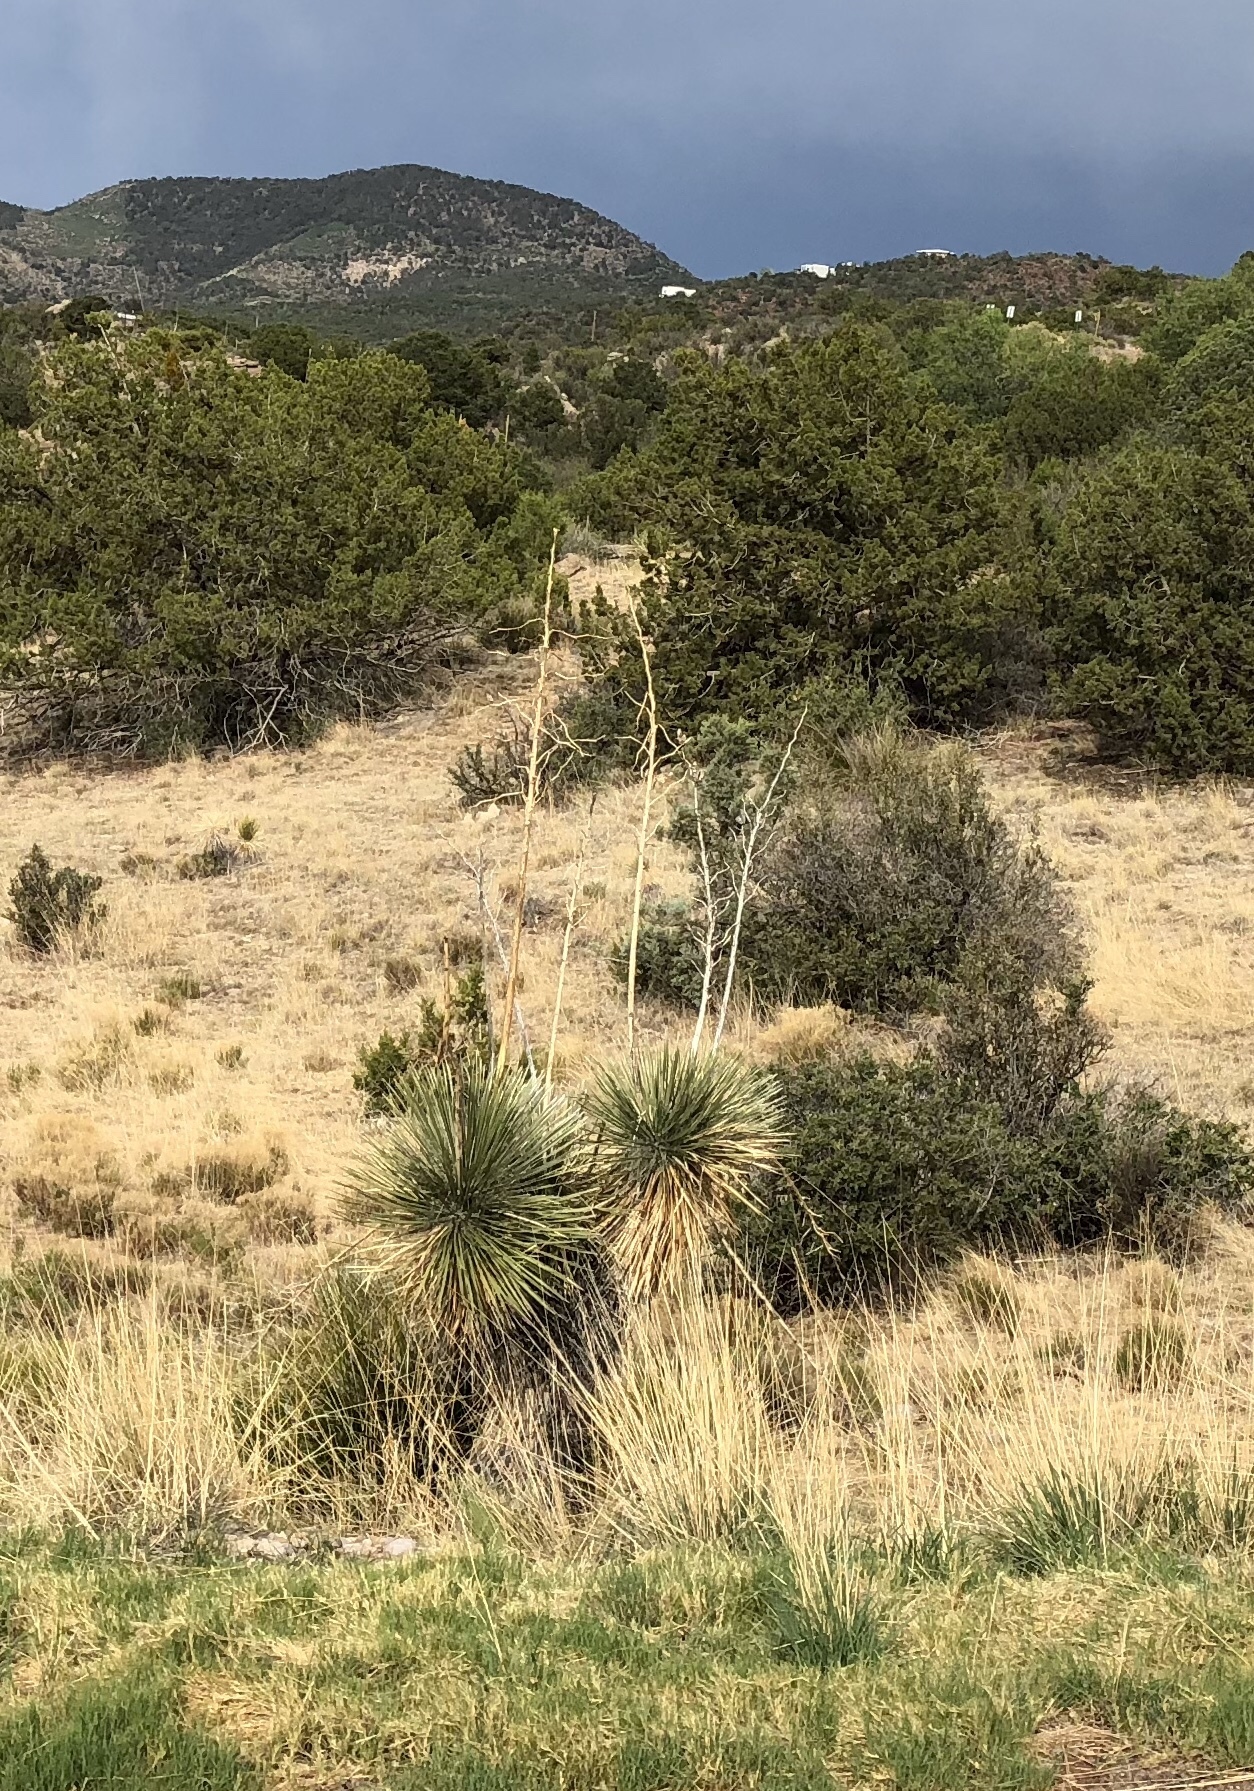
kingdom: Plantae
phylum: Tracheophyta
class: Liliopsida
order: Asparagales
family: Asparagaceae
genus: Yucca
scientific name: Yucca elata
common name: Palmella
